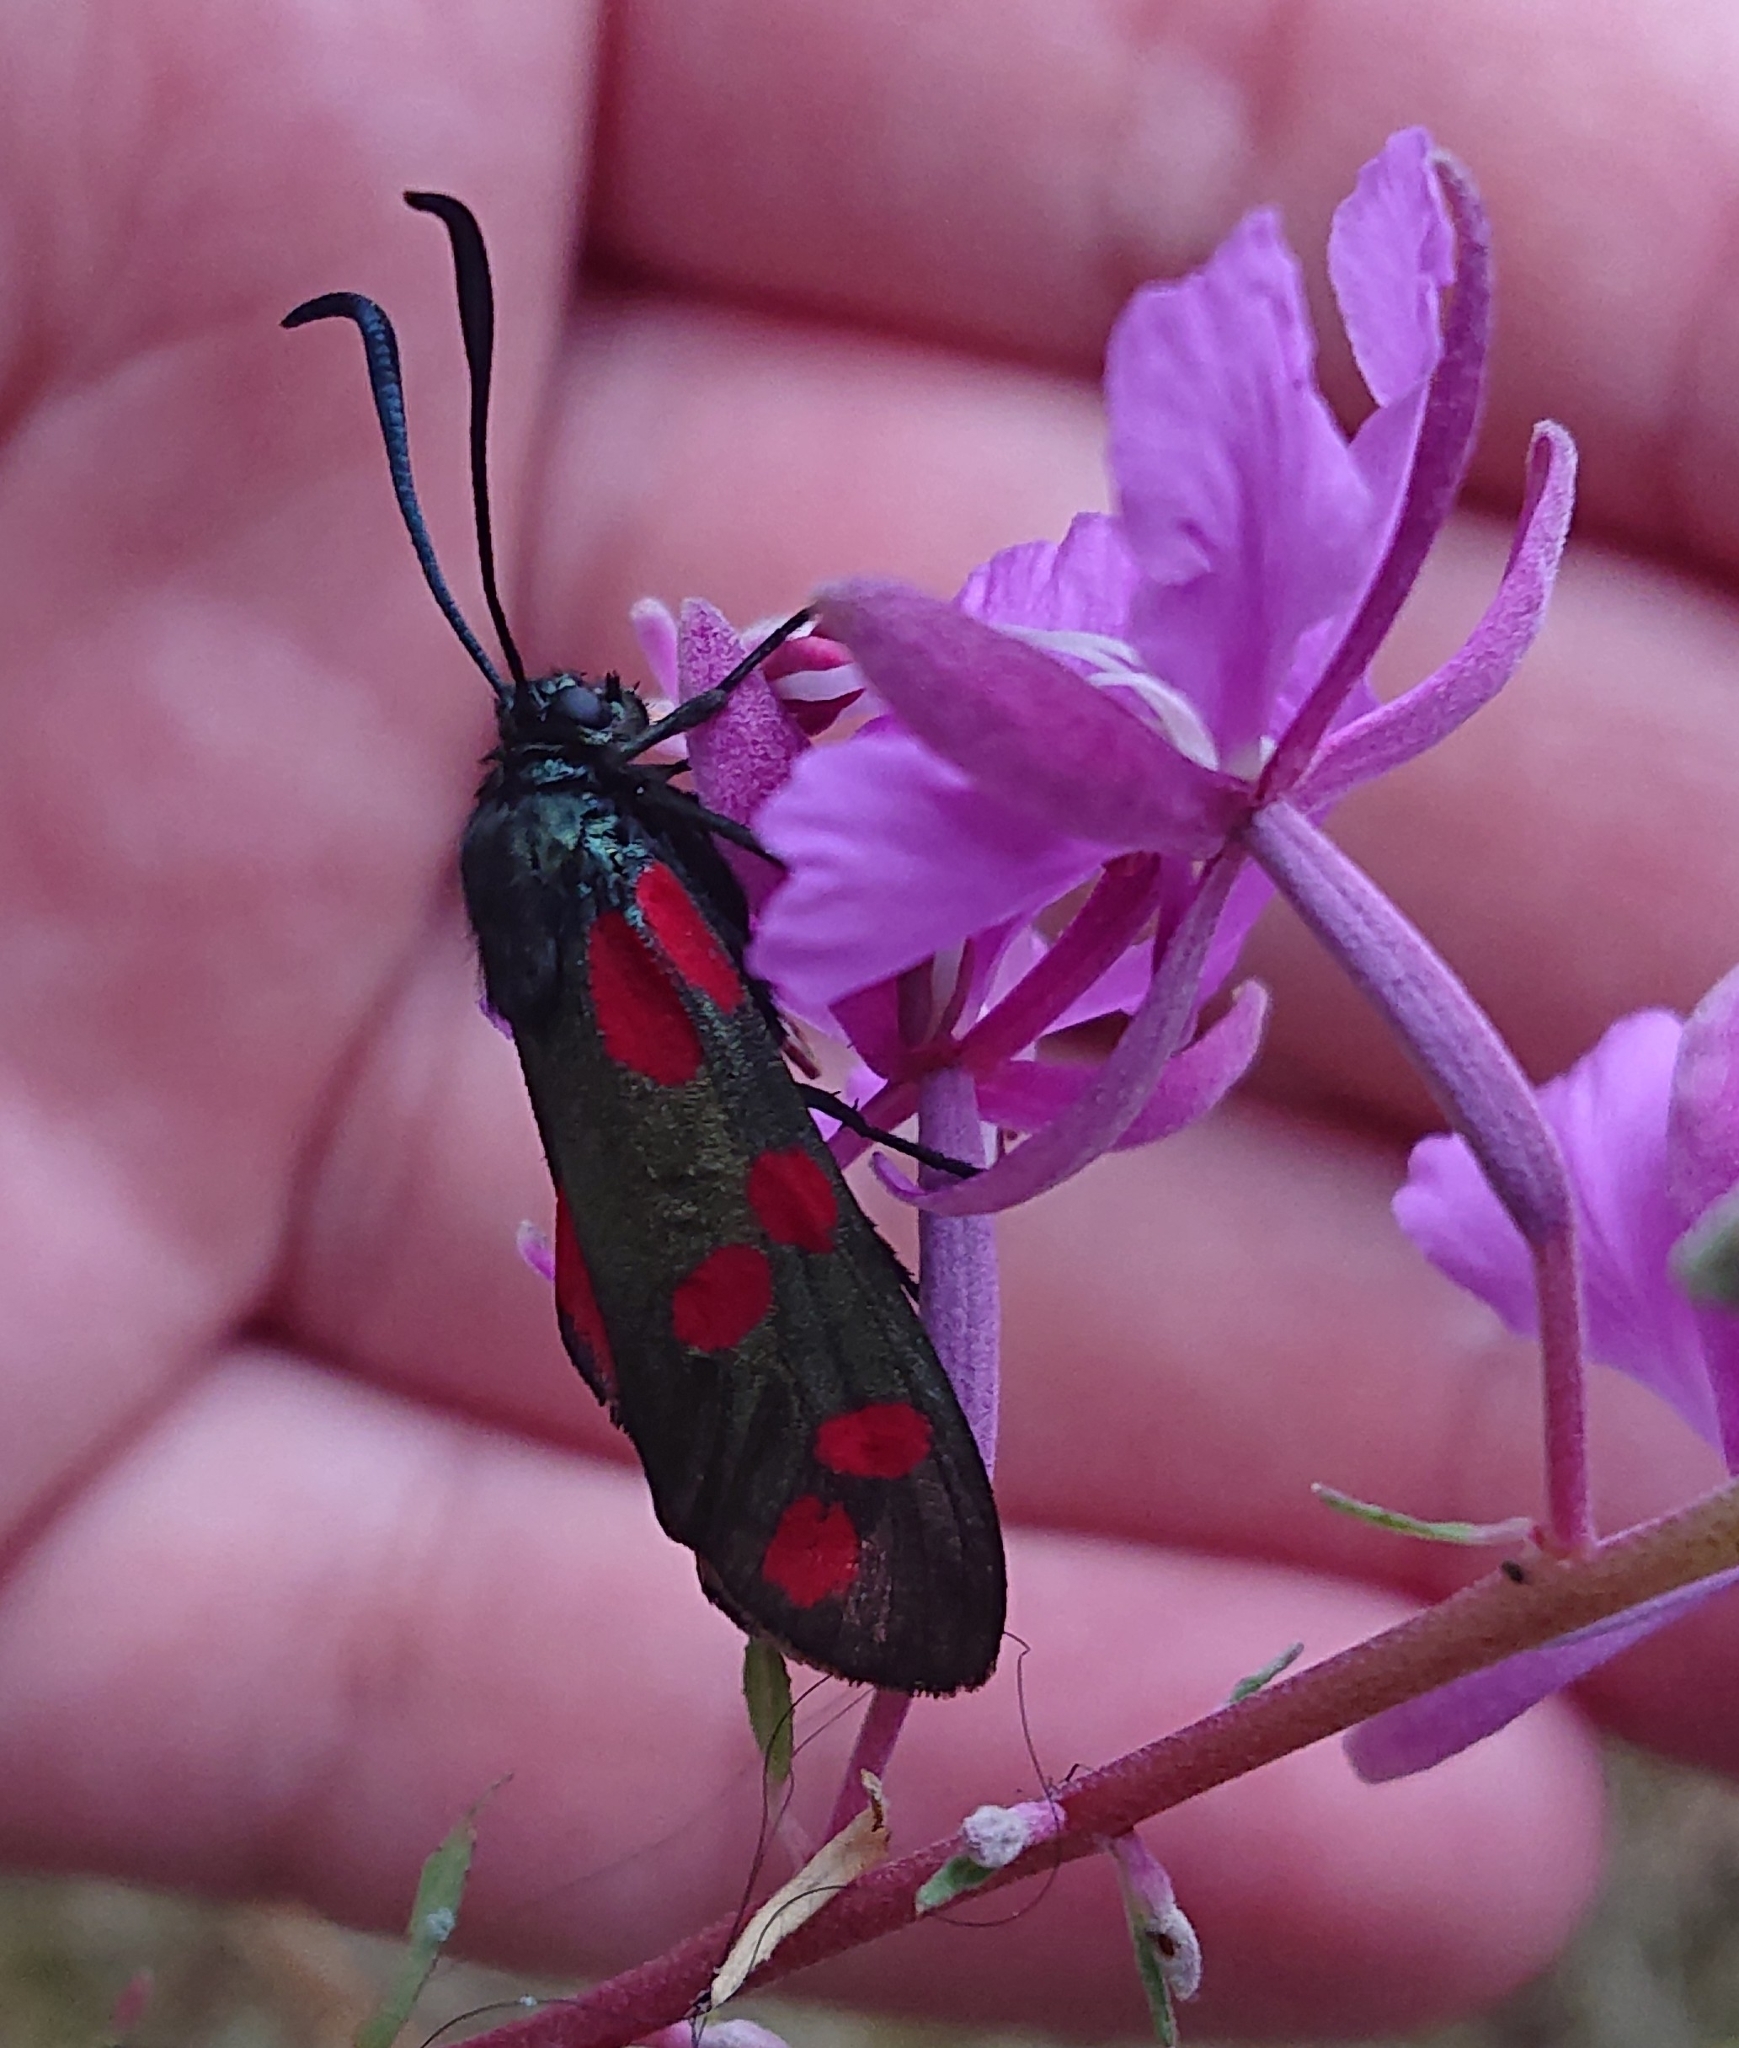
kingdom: Animalia
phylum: Arthropoda
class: Insecta
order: Lepidoptera
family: Zygaenidae
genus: Zygaena
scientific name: Zygaena filipendulae
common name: Six-spot burnet
